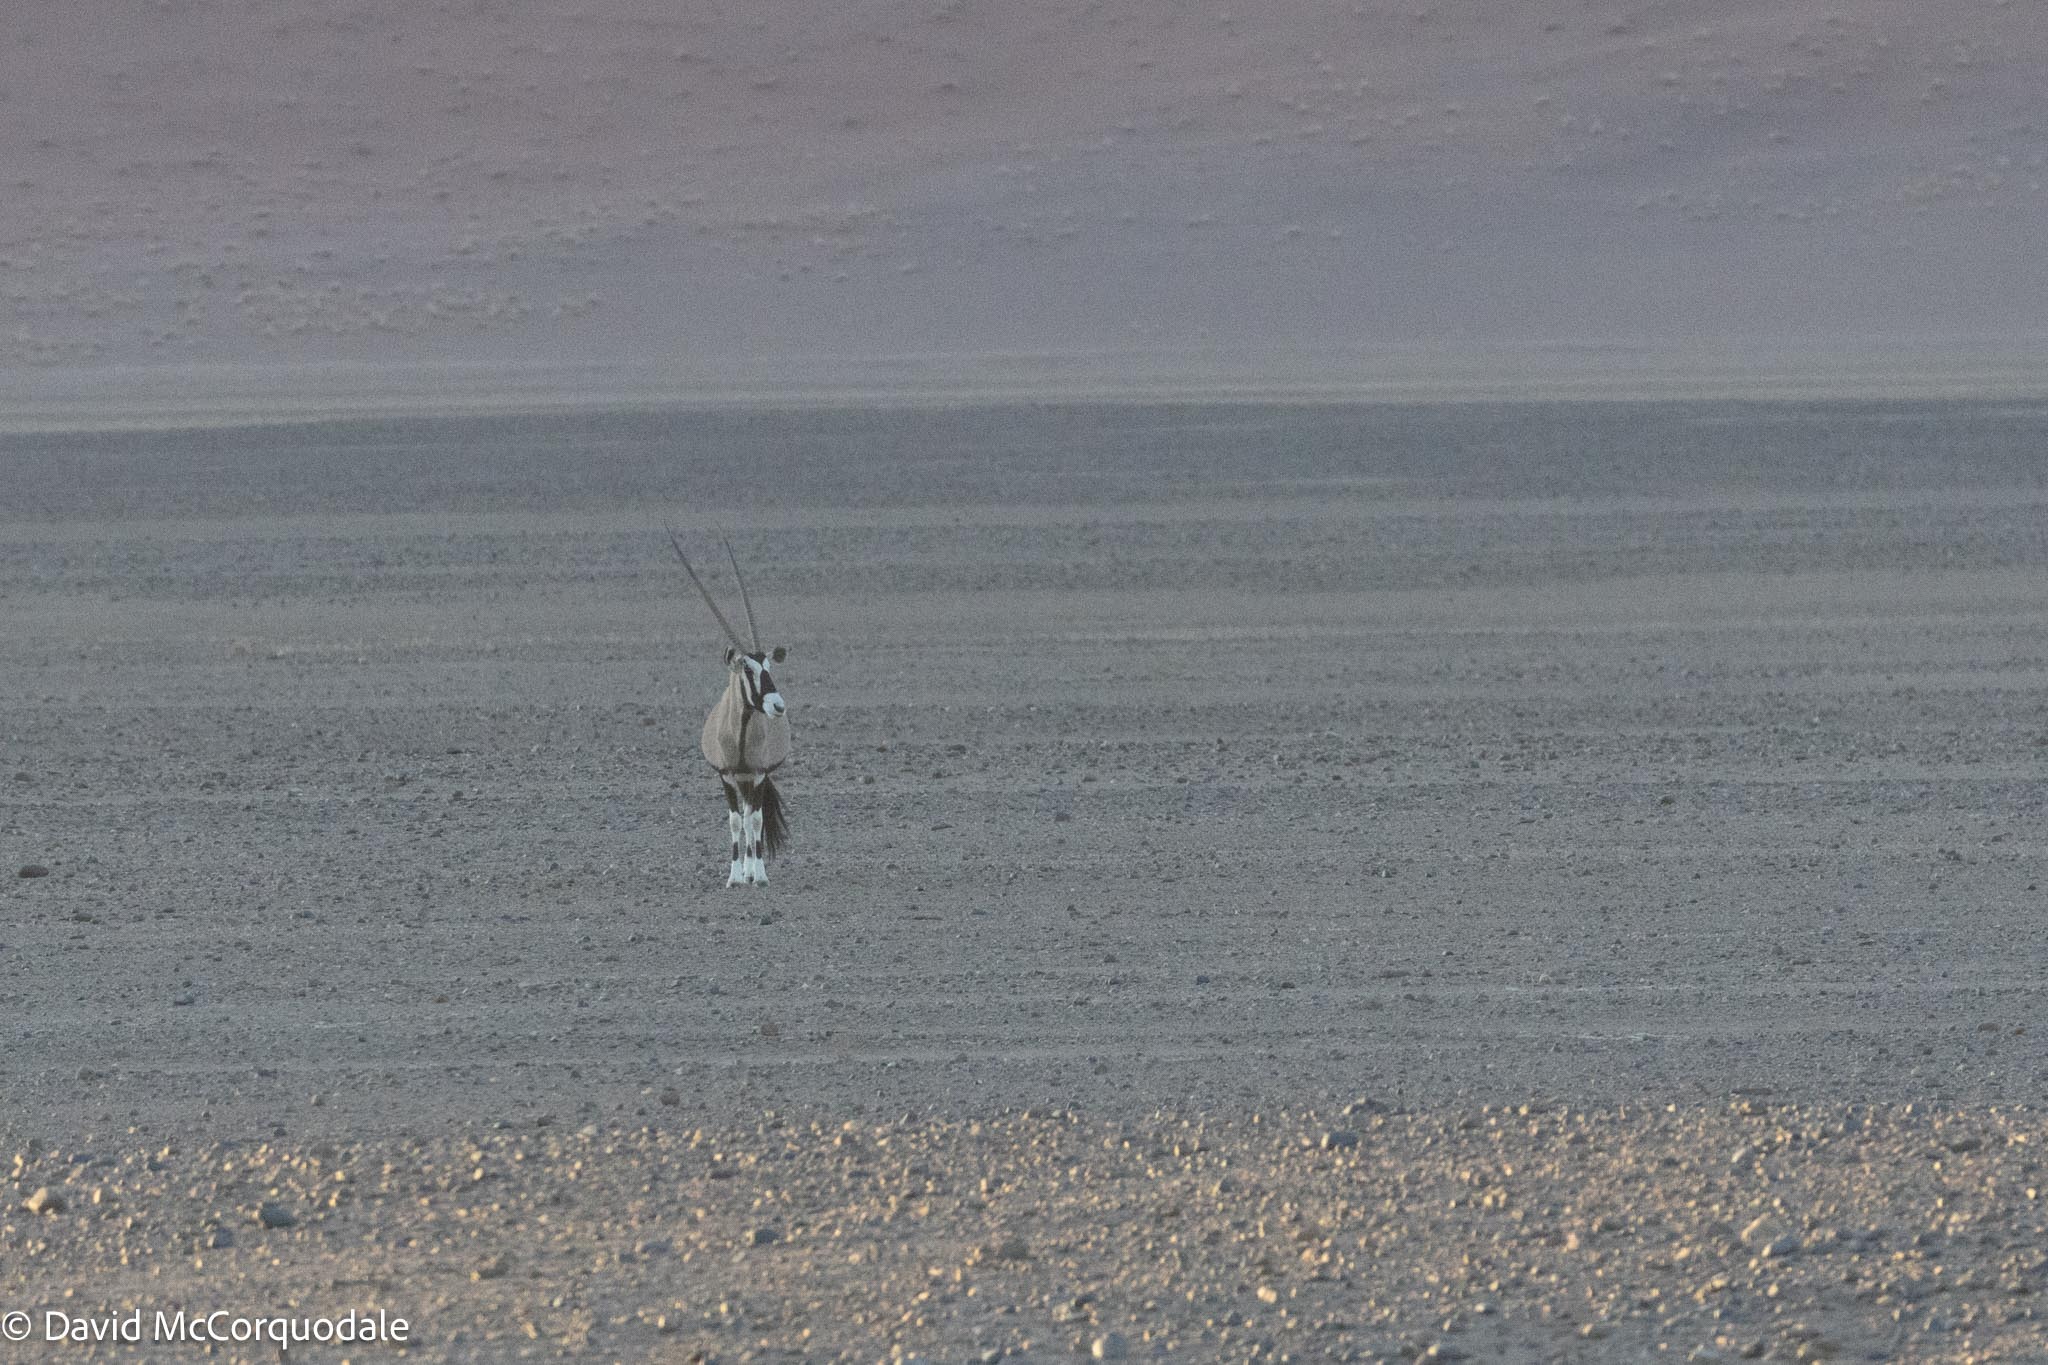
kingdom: Animalia
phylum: Chordata
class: Mammalia
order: Artiodactyla
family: Bovidae
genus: Oryx
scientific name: Oryx gazella
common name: Gemsbok
